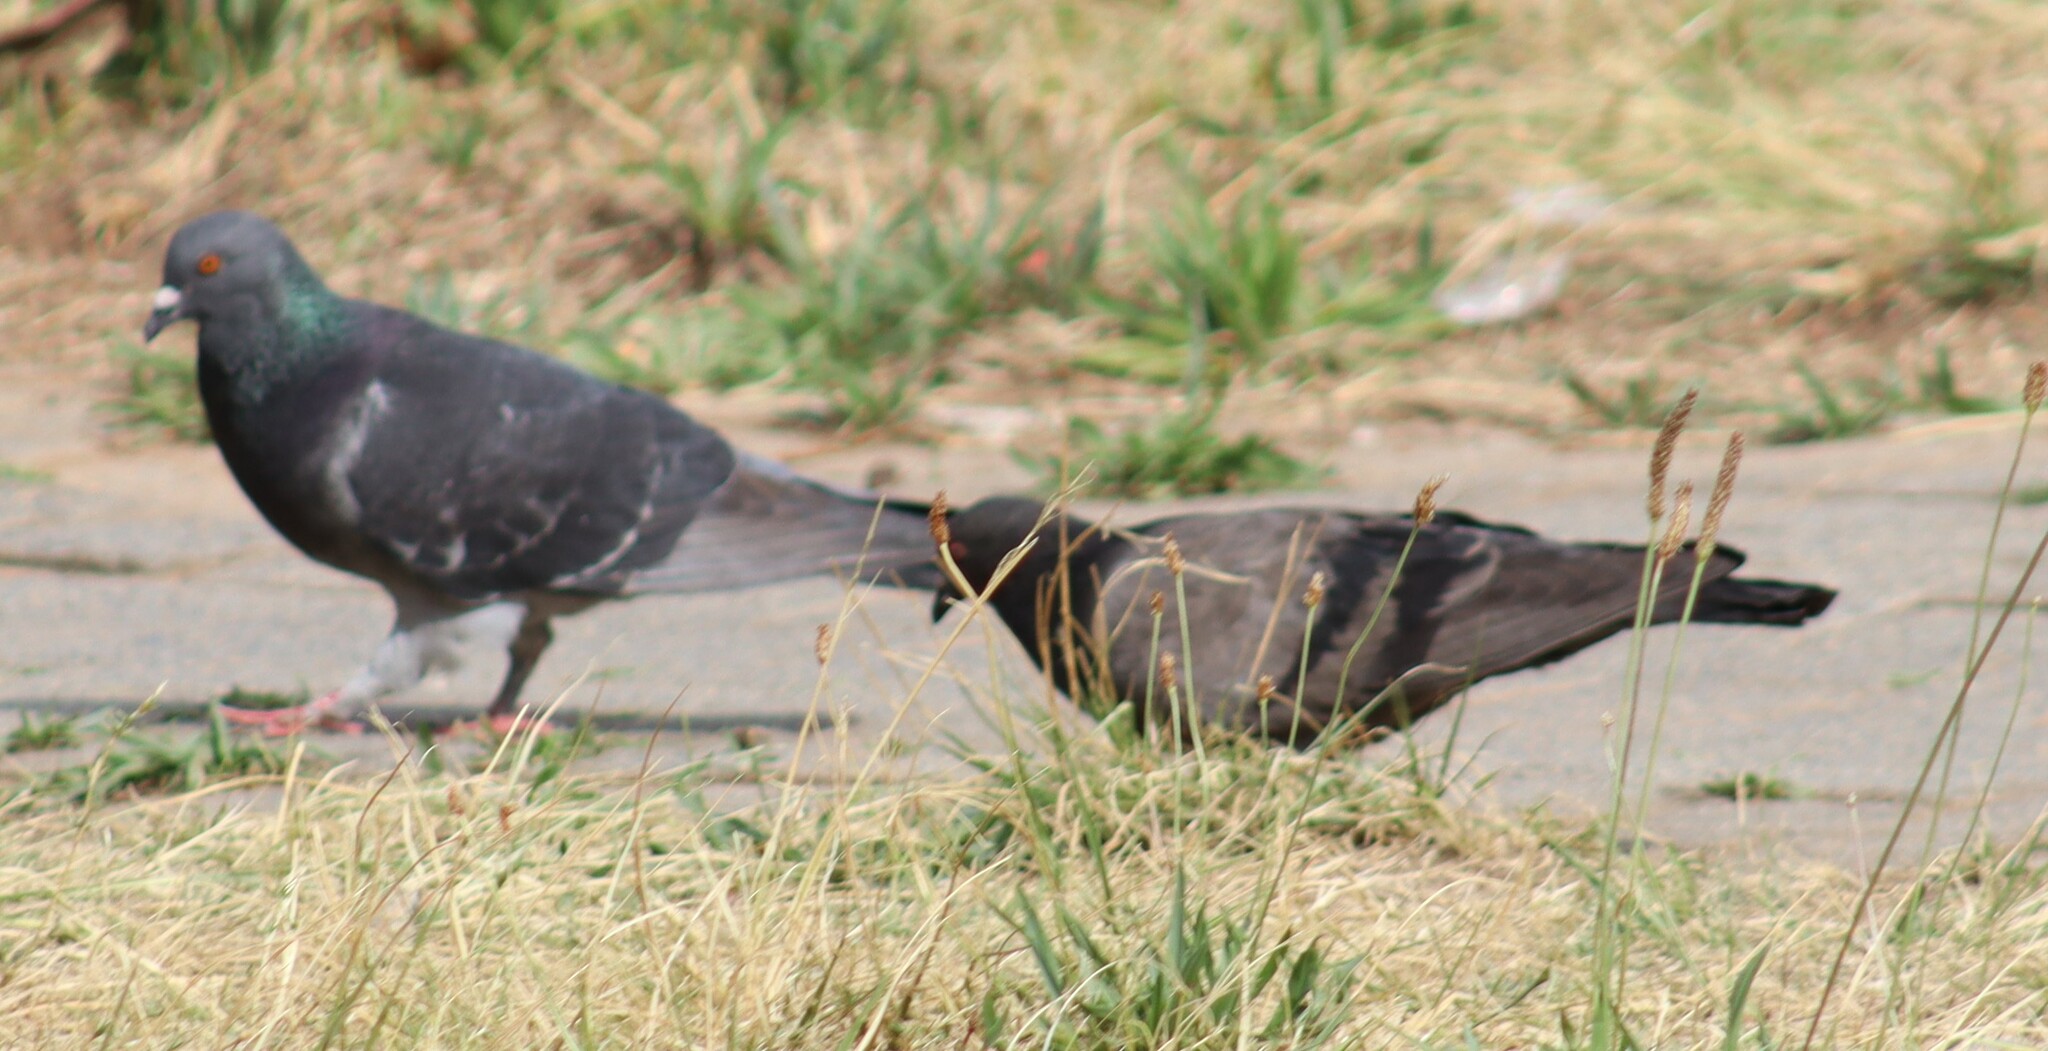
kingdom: Animalia
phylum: Chordata
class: Aves
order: Columbiformes
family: Columbidae
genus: Columba
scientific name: Columba livia
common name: Rock pigeon
